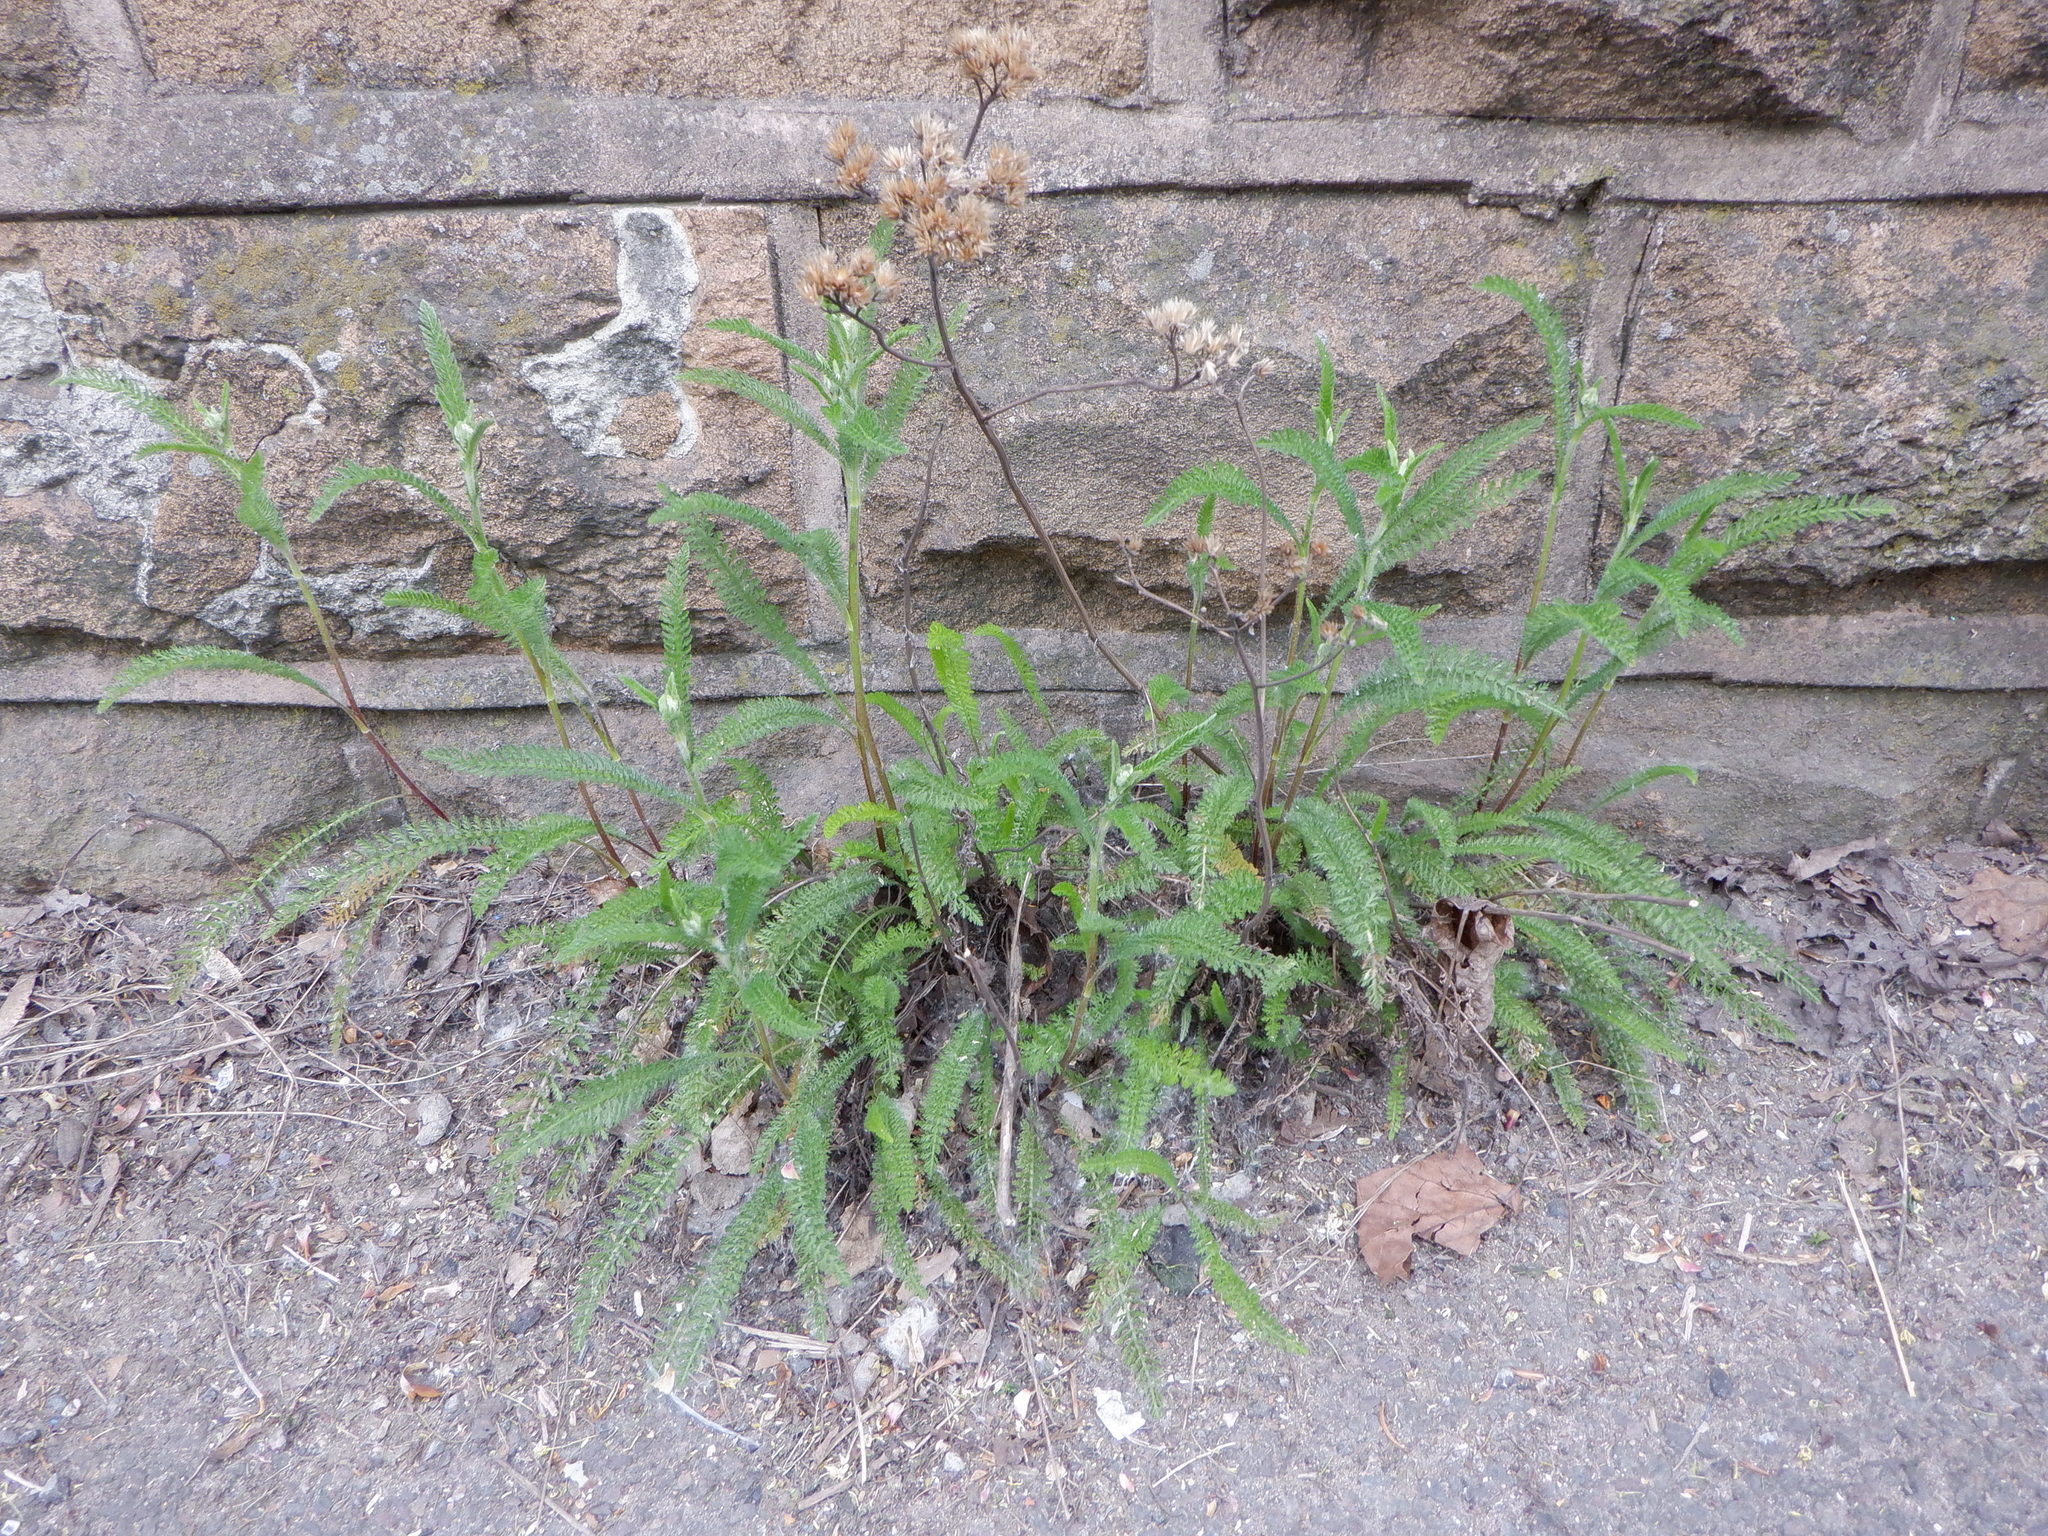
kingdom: Plantae
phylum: Tracheophyta
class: Magnoliopsida
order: Asterales
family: Asteraceae
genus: Achillea
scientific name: Achillea millefolium
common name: Yarrow
